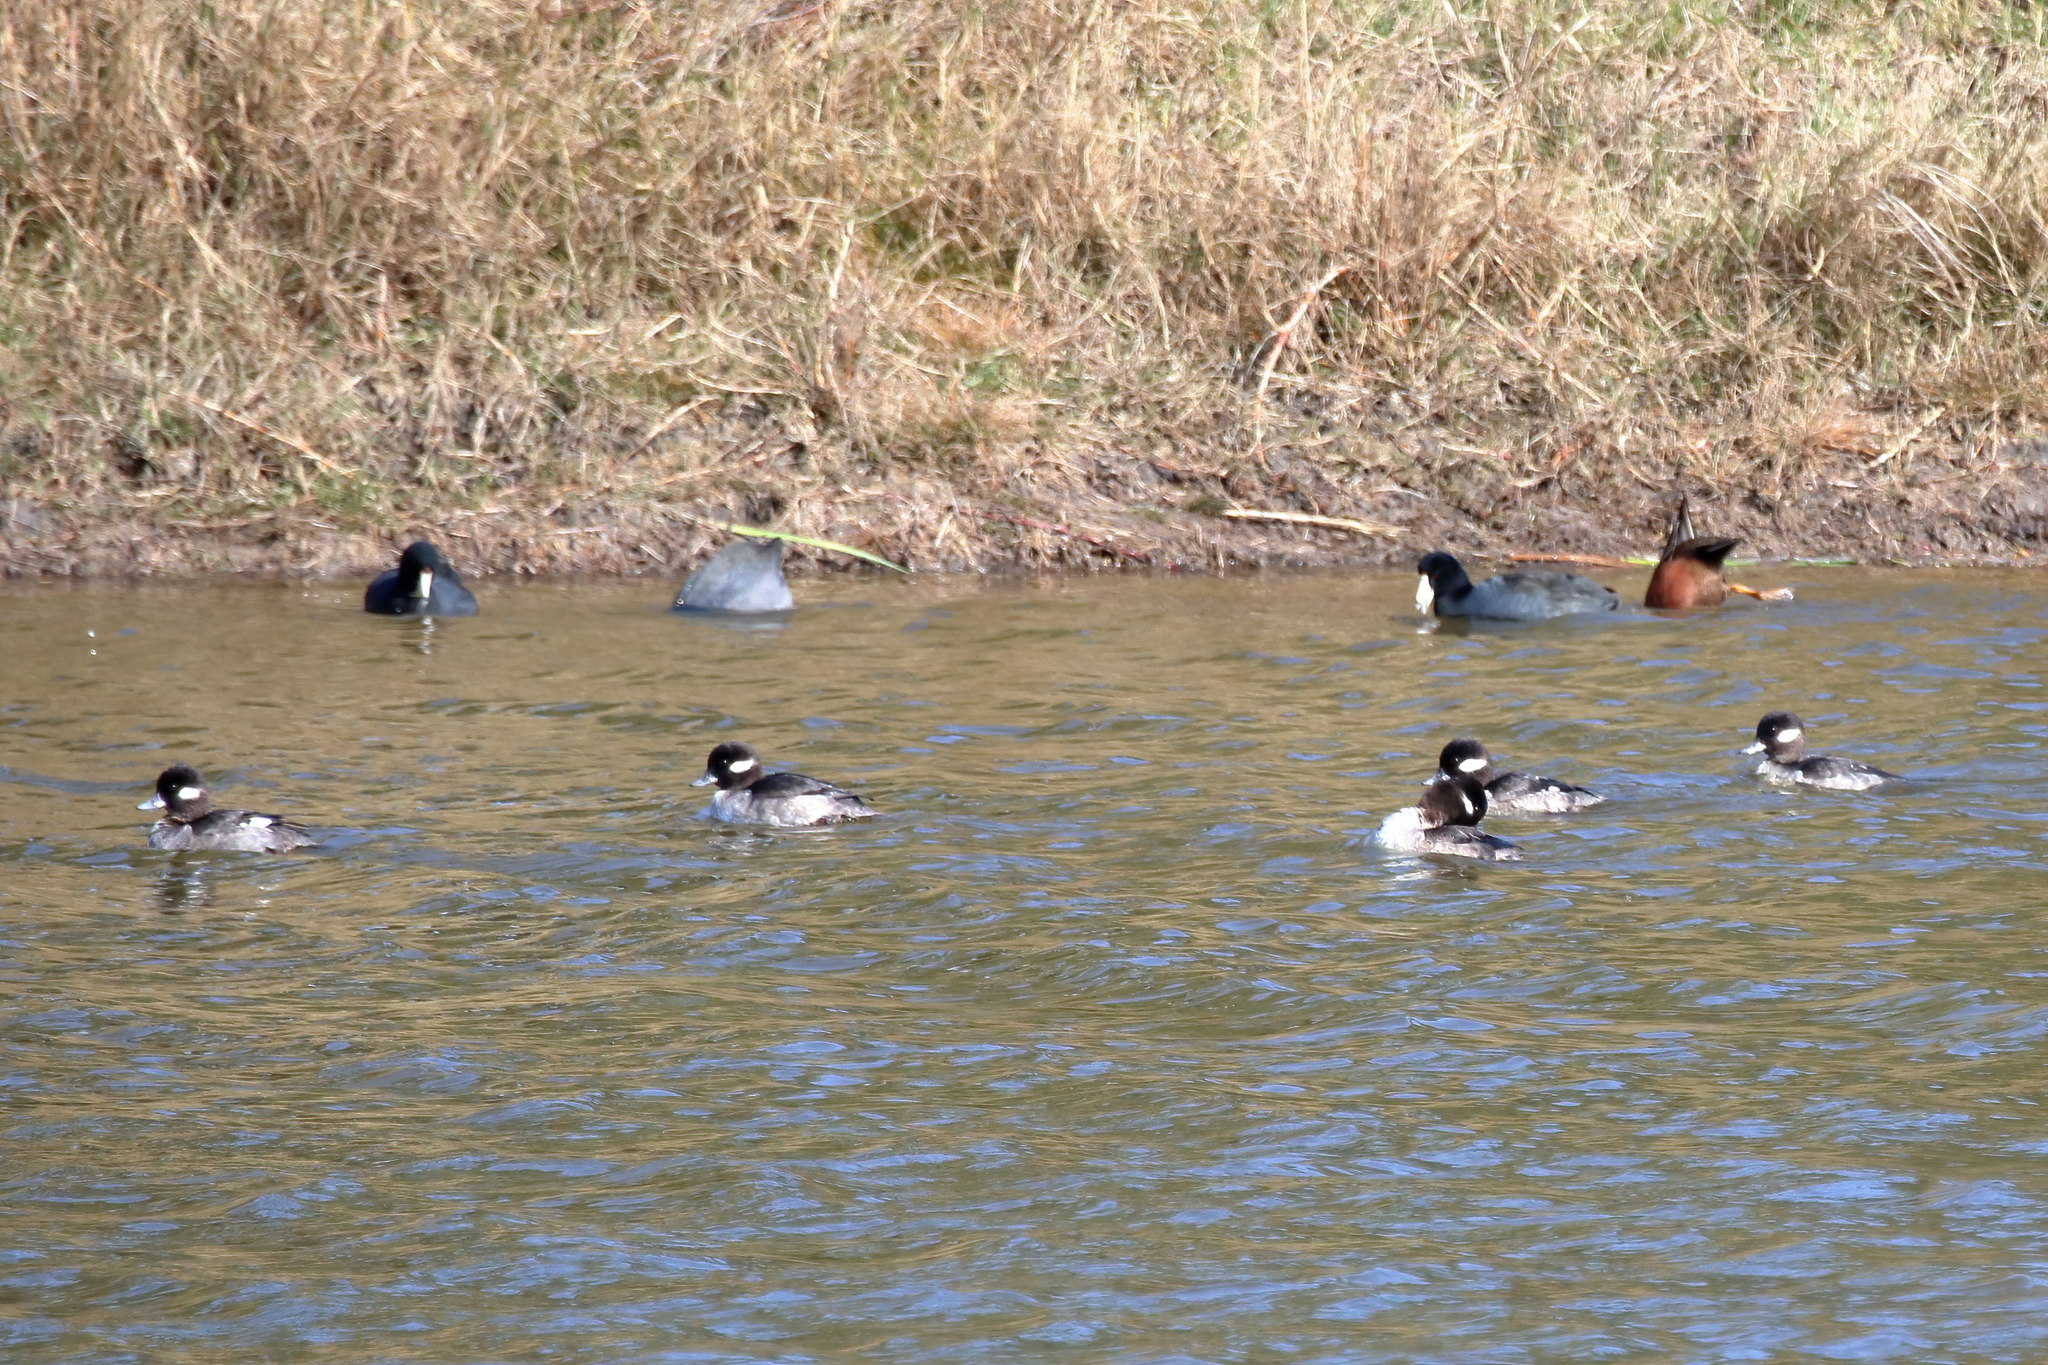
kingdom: Animalia
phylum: Chordata
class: Aves
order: Anseriformes
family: Anatidae
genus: Bucephala
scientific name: Bucephala albeola
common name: Bufflehead
